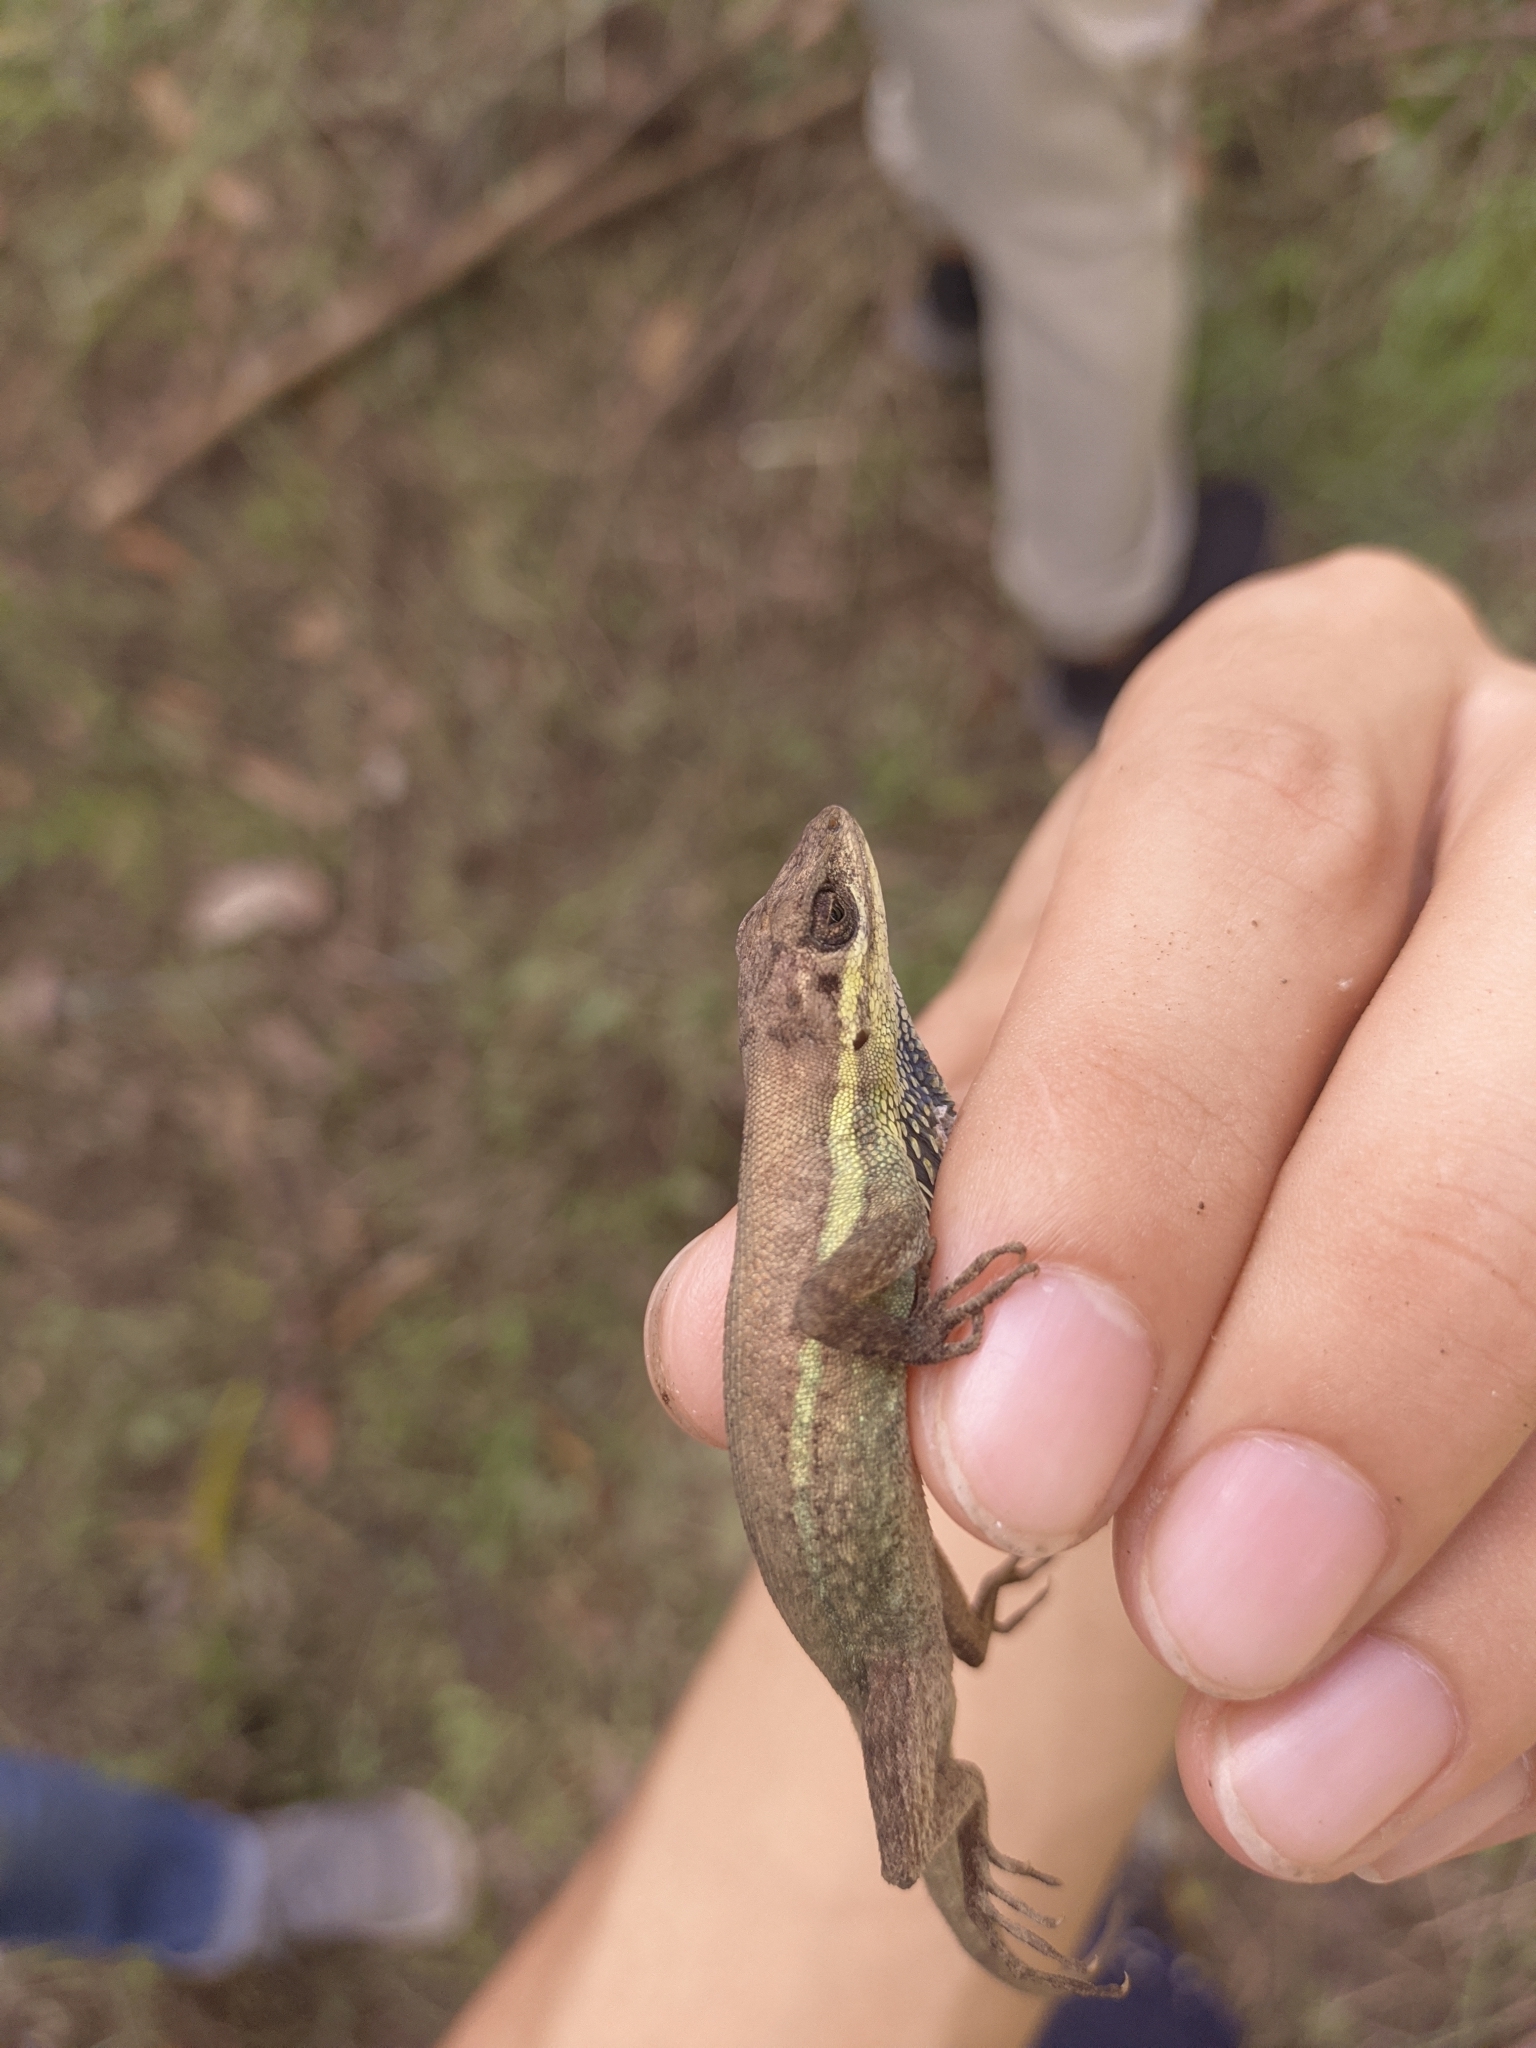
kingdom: Animalia
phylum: Chordata
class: Squamata
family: Dactyloidae
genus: Anolis
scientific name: Anolis auratus
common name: Grass anole
